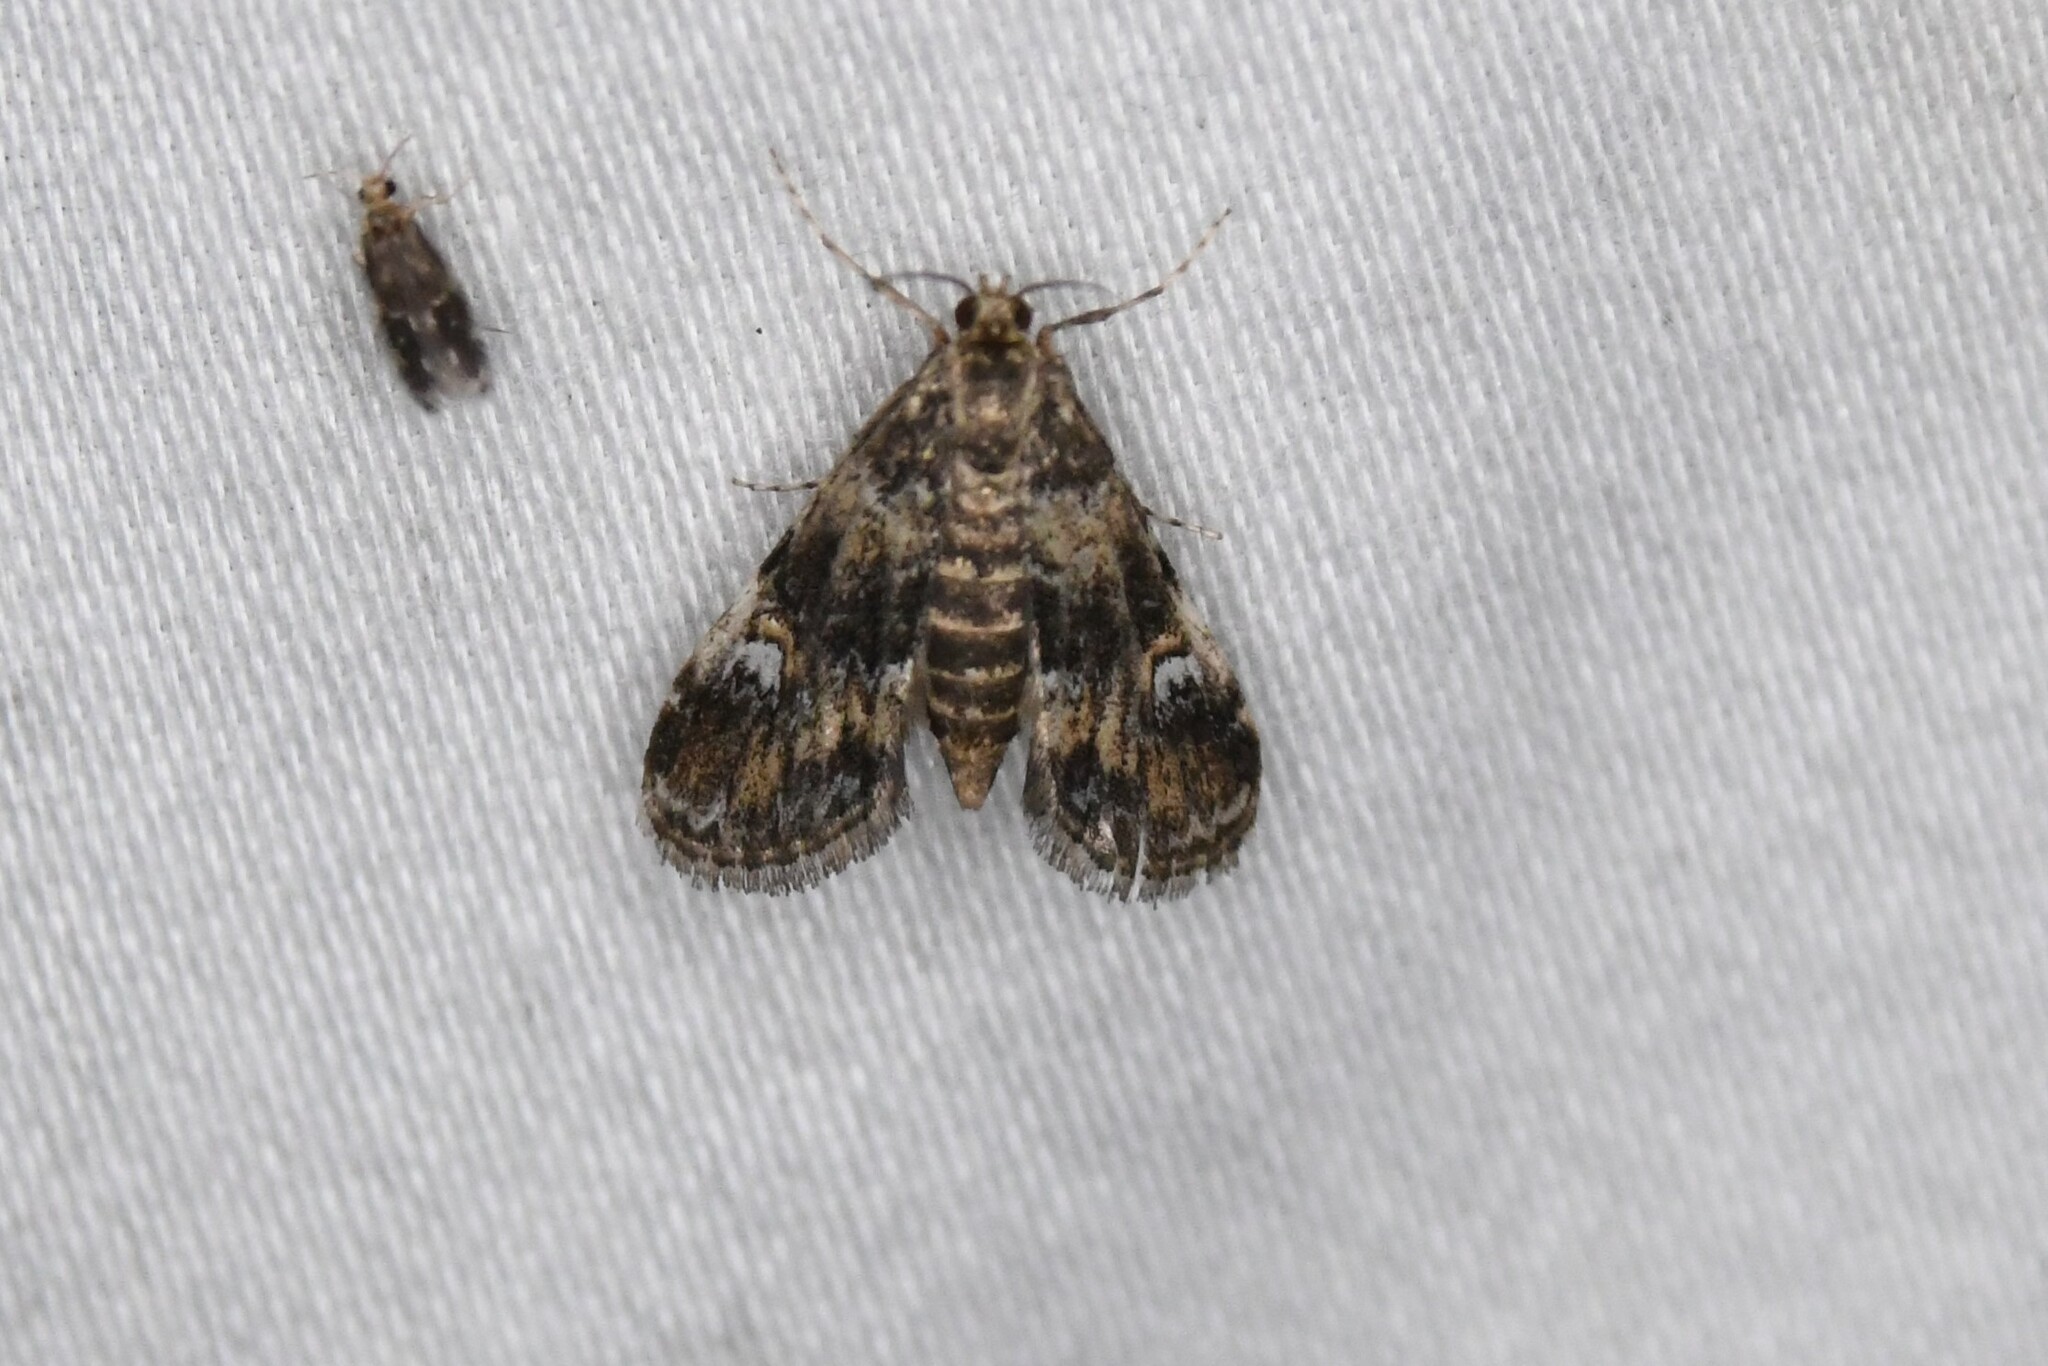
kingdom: Animalia
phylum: Arthropoda
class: Insecta
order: Lepidoptera
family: Crambidae
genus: Elophila
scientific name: Elophila obliteralis
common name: Waterlily leafcutter moth
